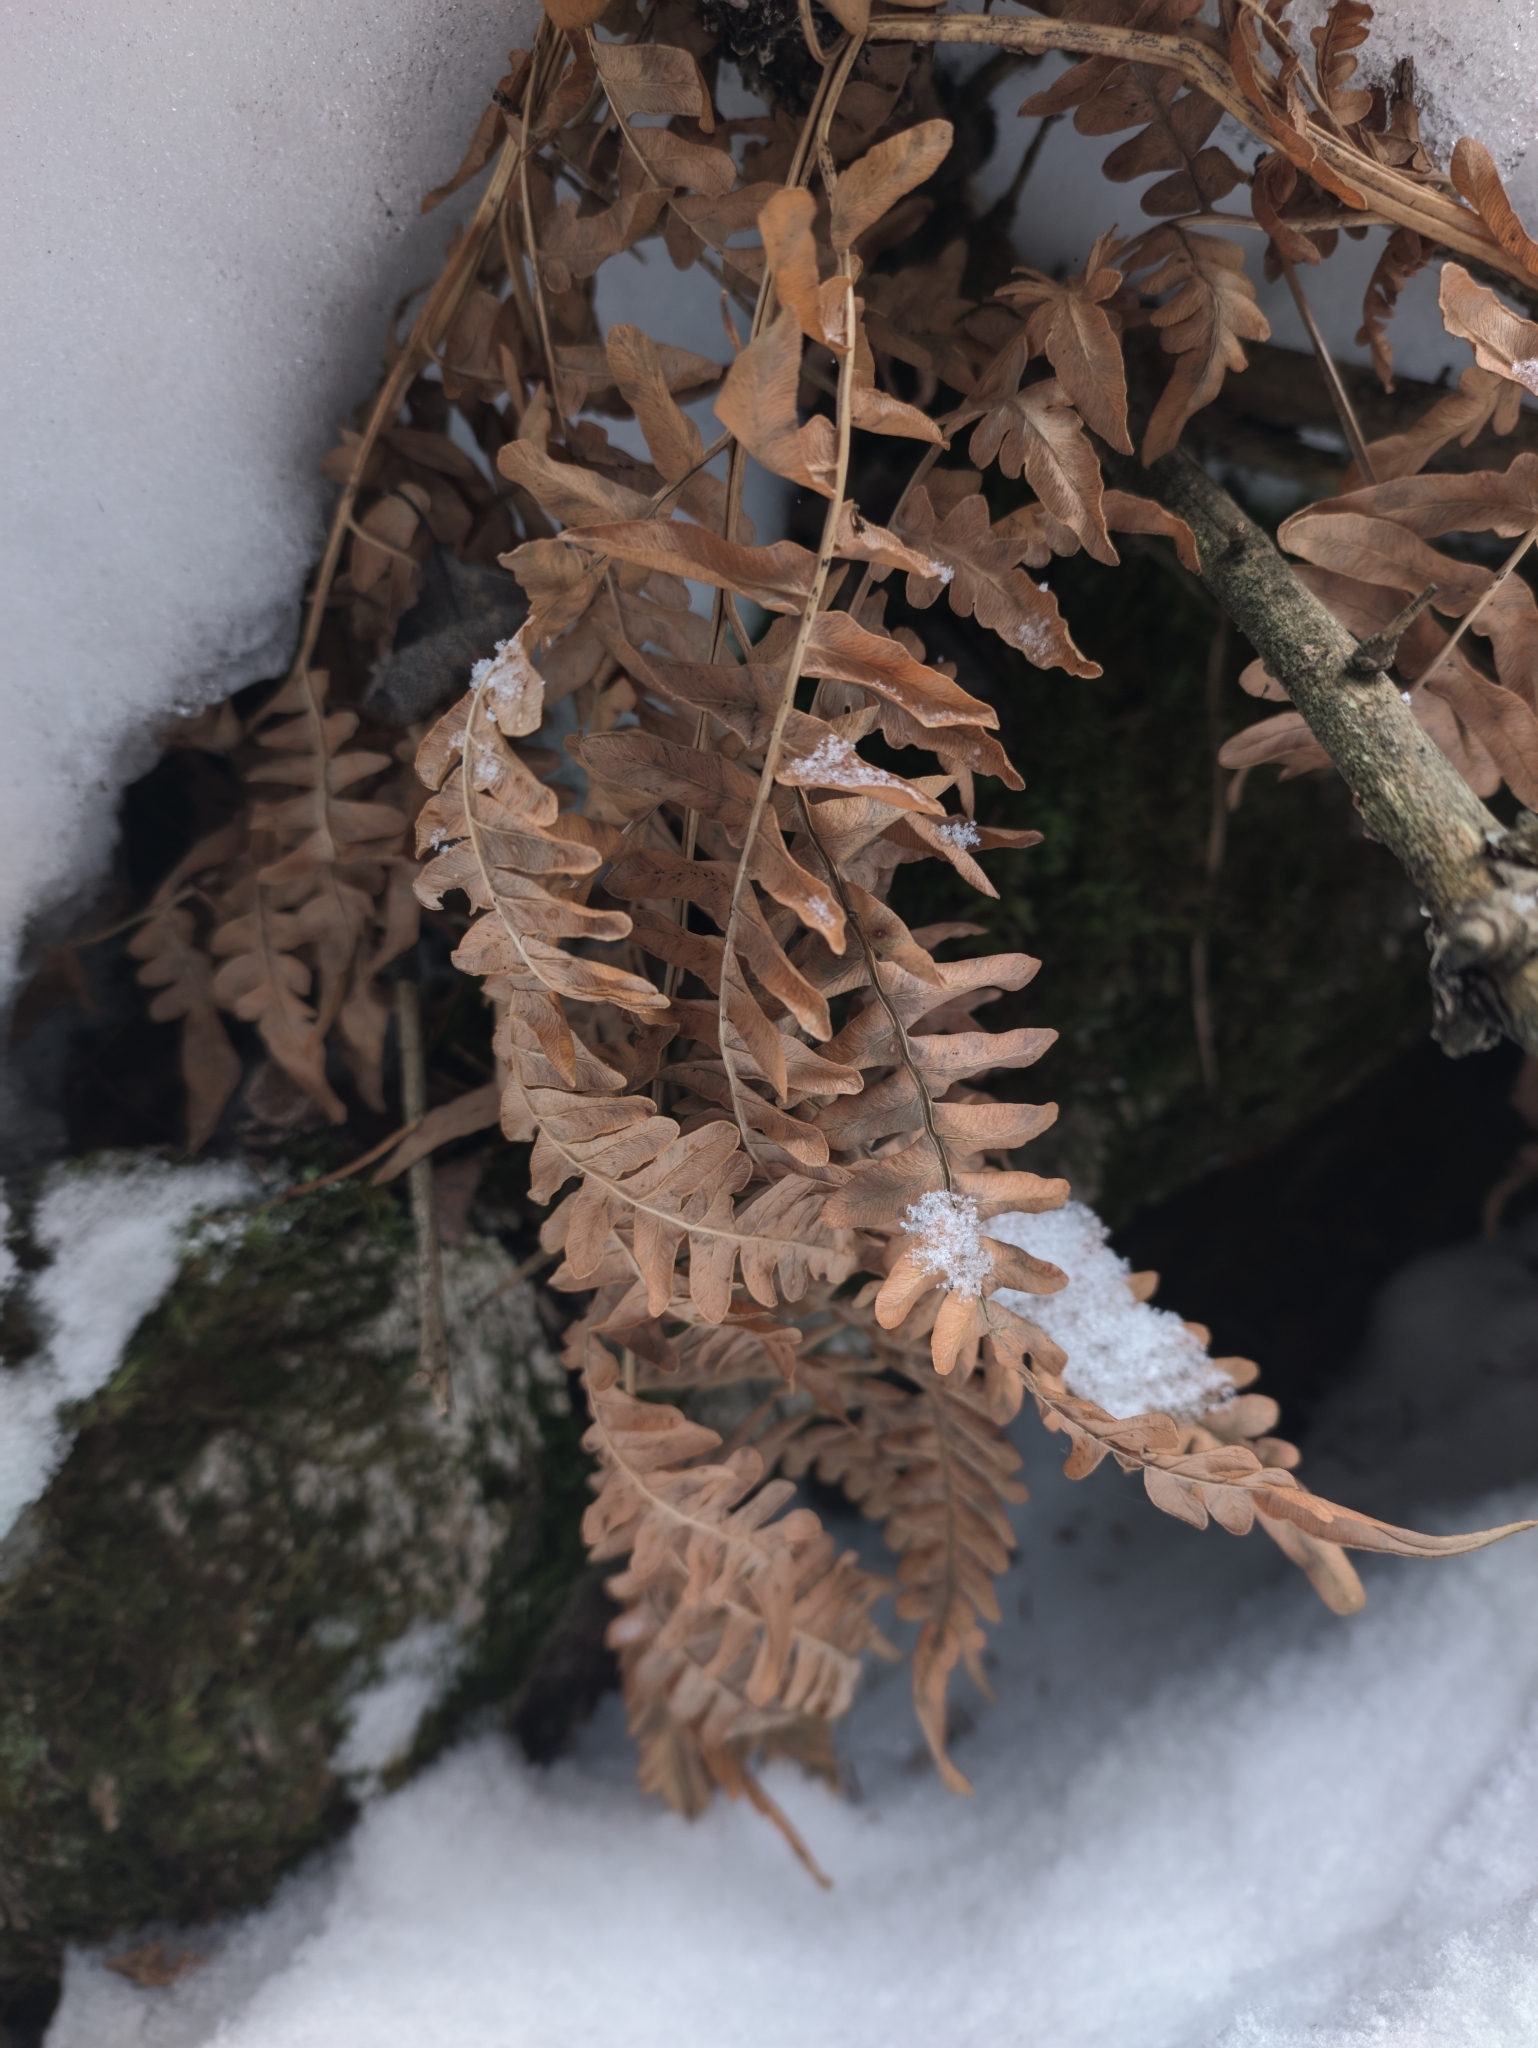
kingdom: Plantae
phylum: Tracheophyta
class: Polypodiopsida
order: Polypodiales
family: Dennstaedtiaceae
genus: Pteridium
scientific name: Pteridium aquilinum
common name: Bracken
